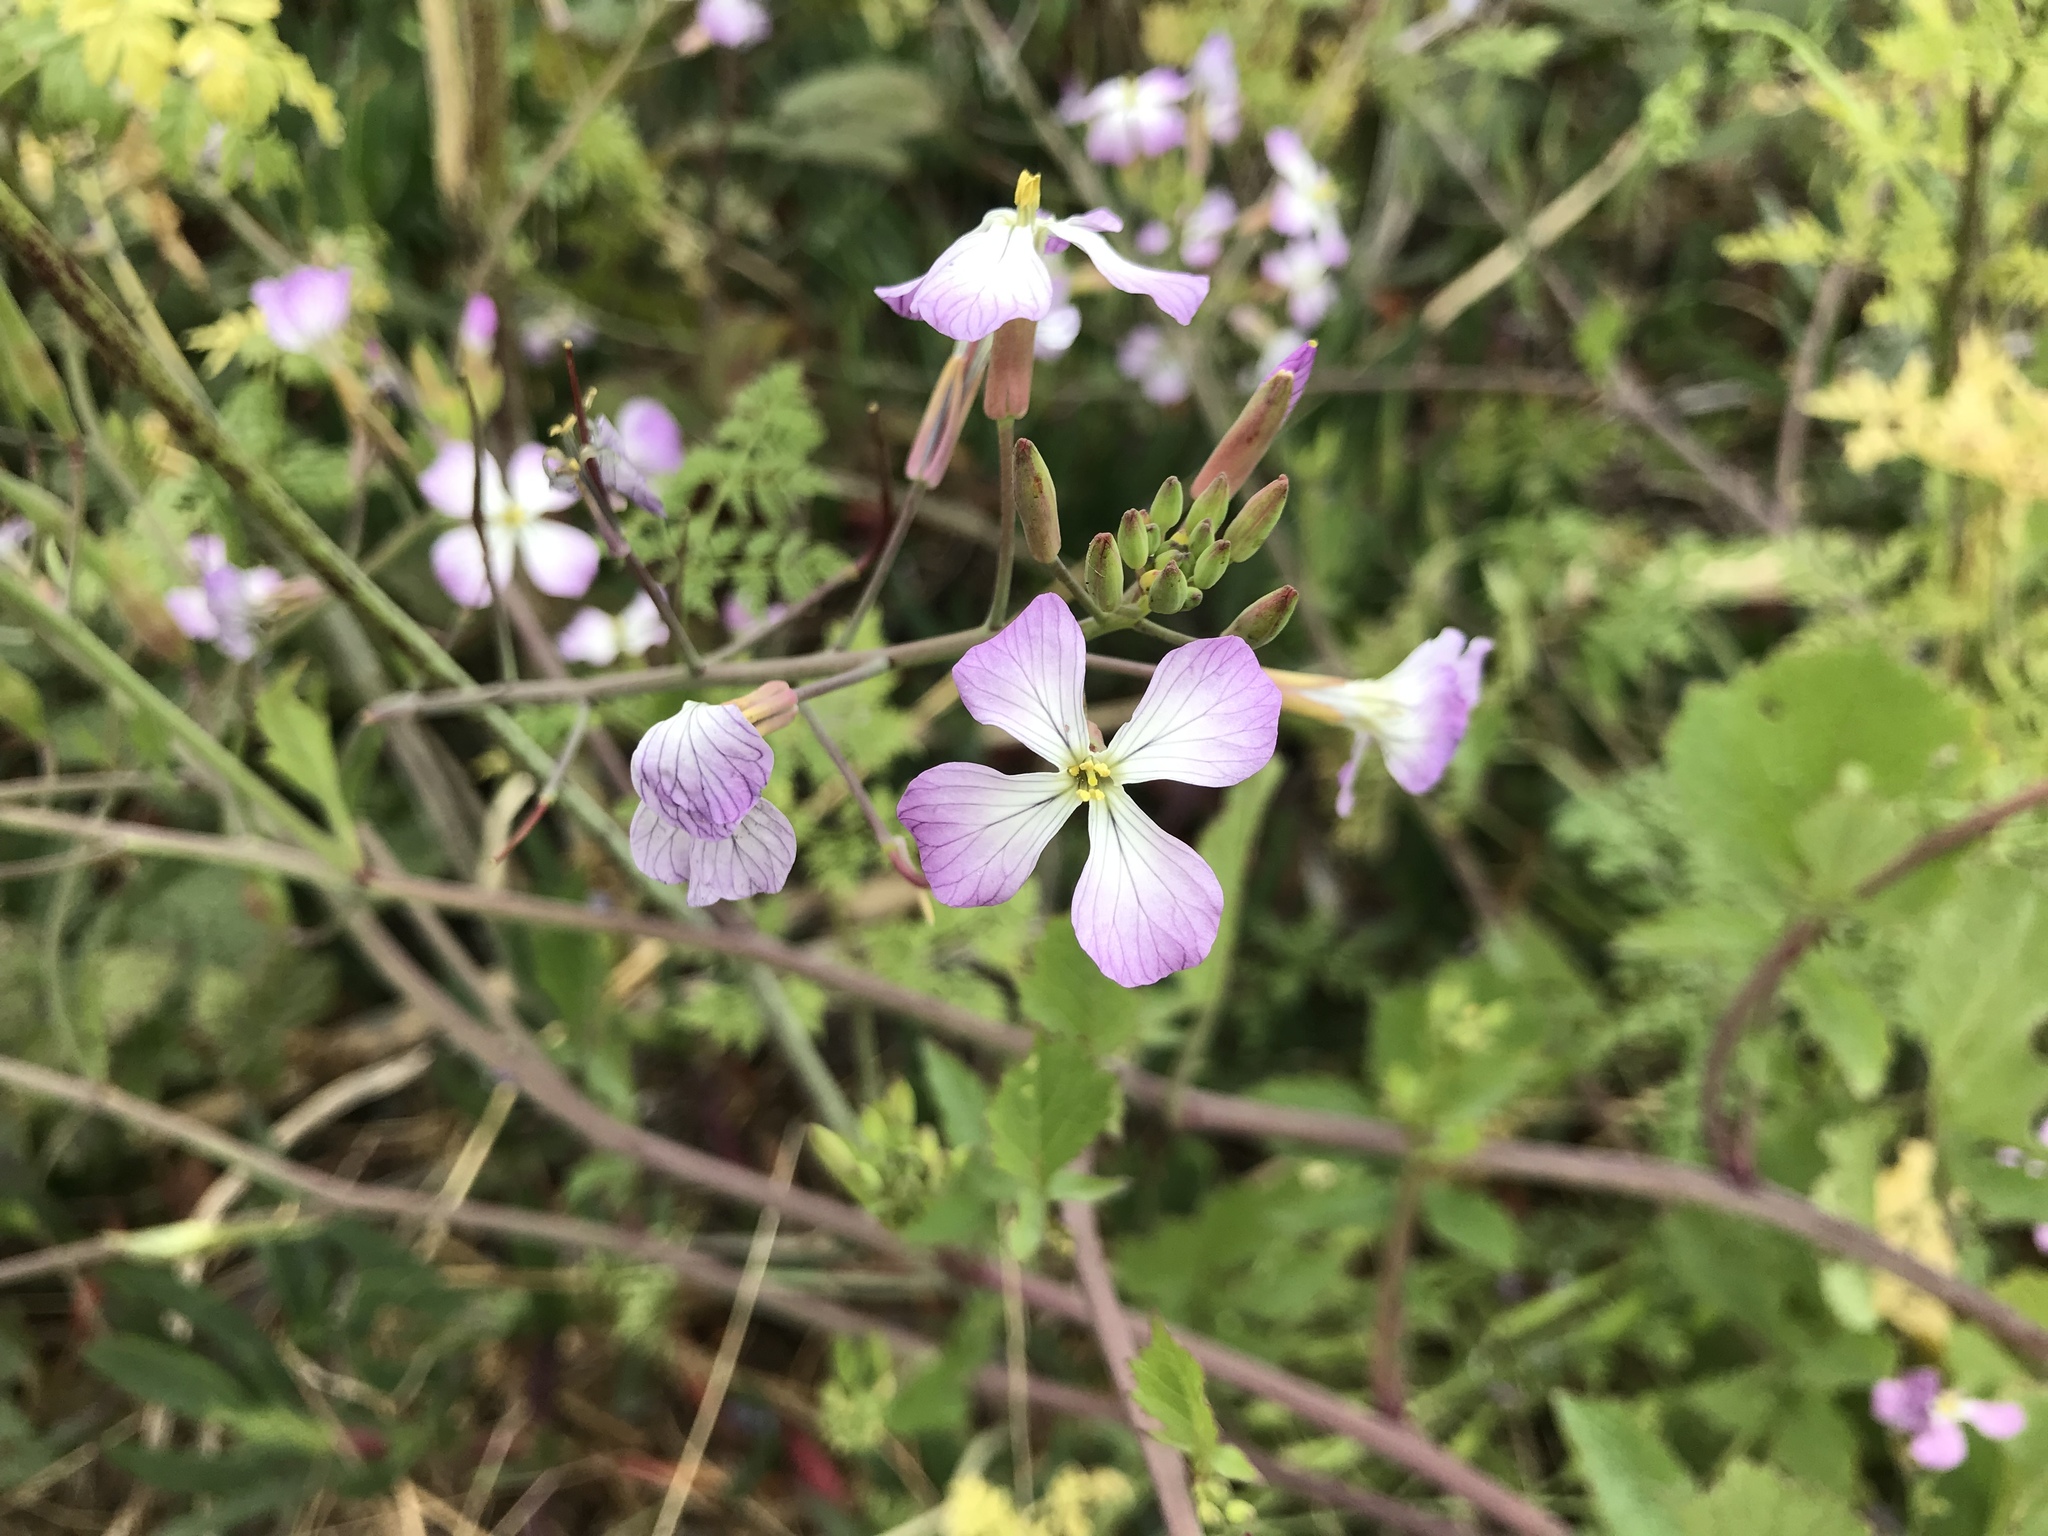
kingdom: Plantae
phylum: Tracheophyta
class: Magnoliopsida
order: Brassicales
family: Brassicaceae
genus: Raphanus
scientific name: Raphanus sativus
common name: Cultivated radish
